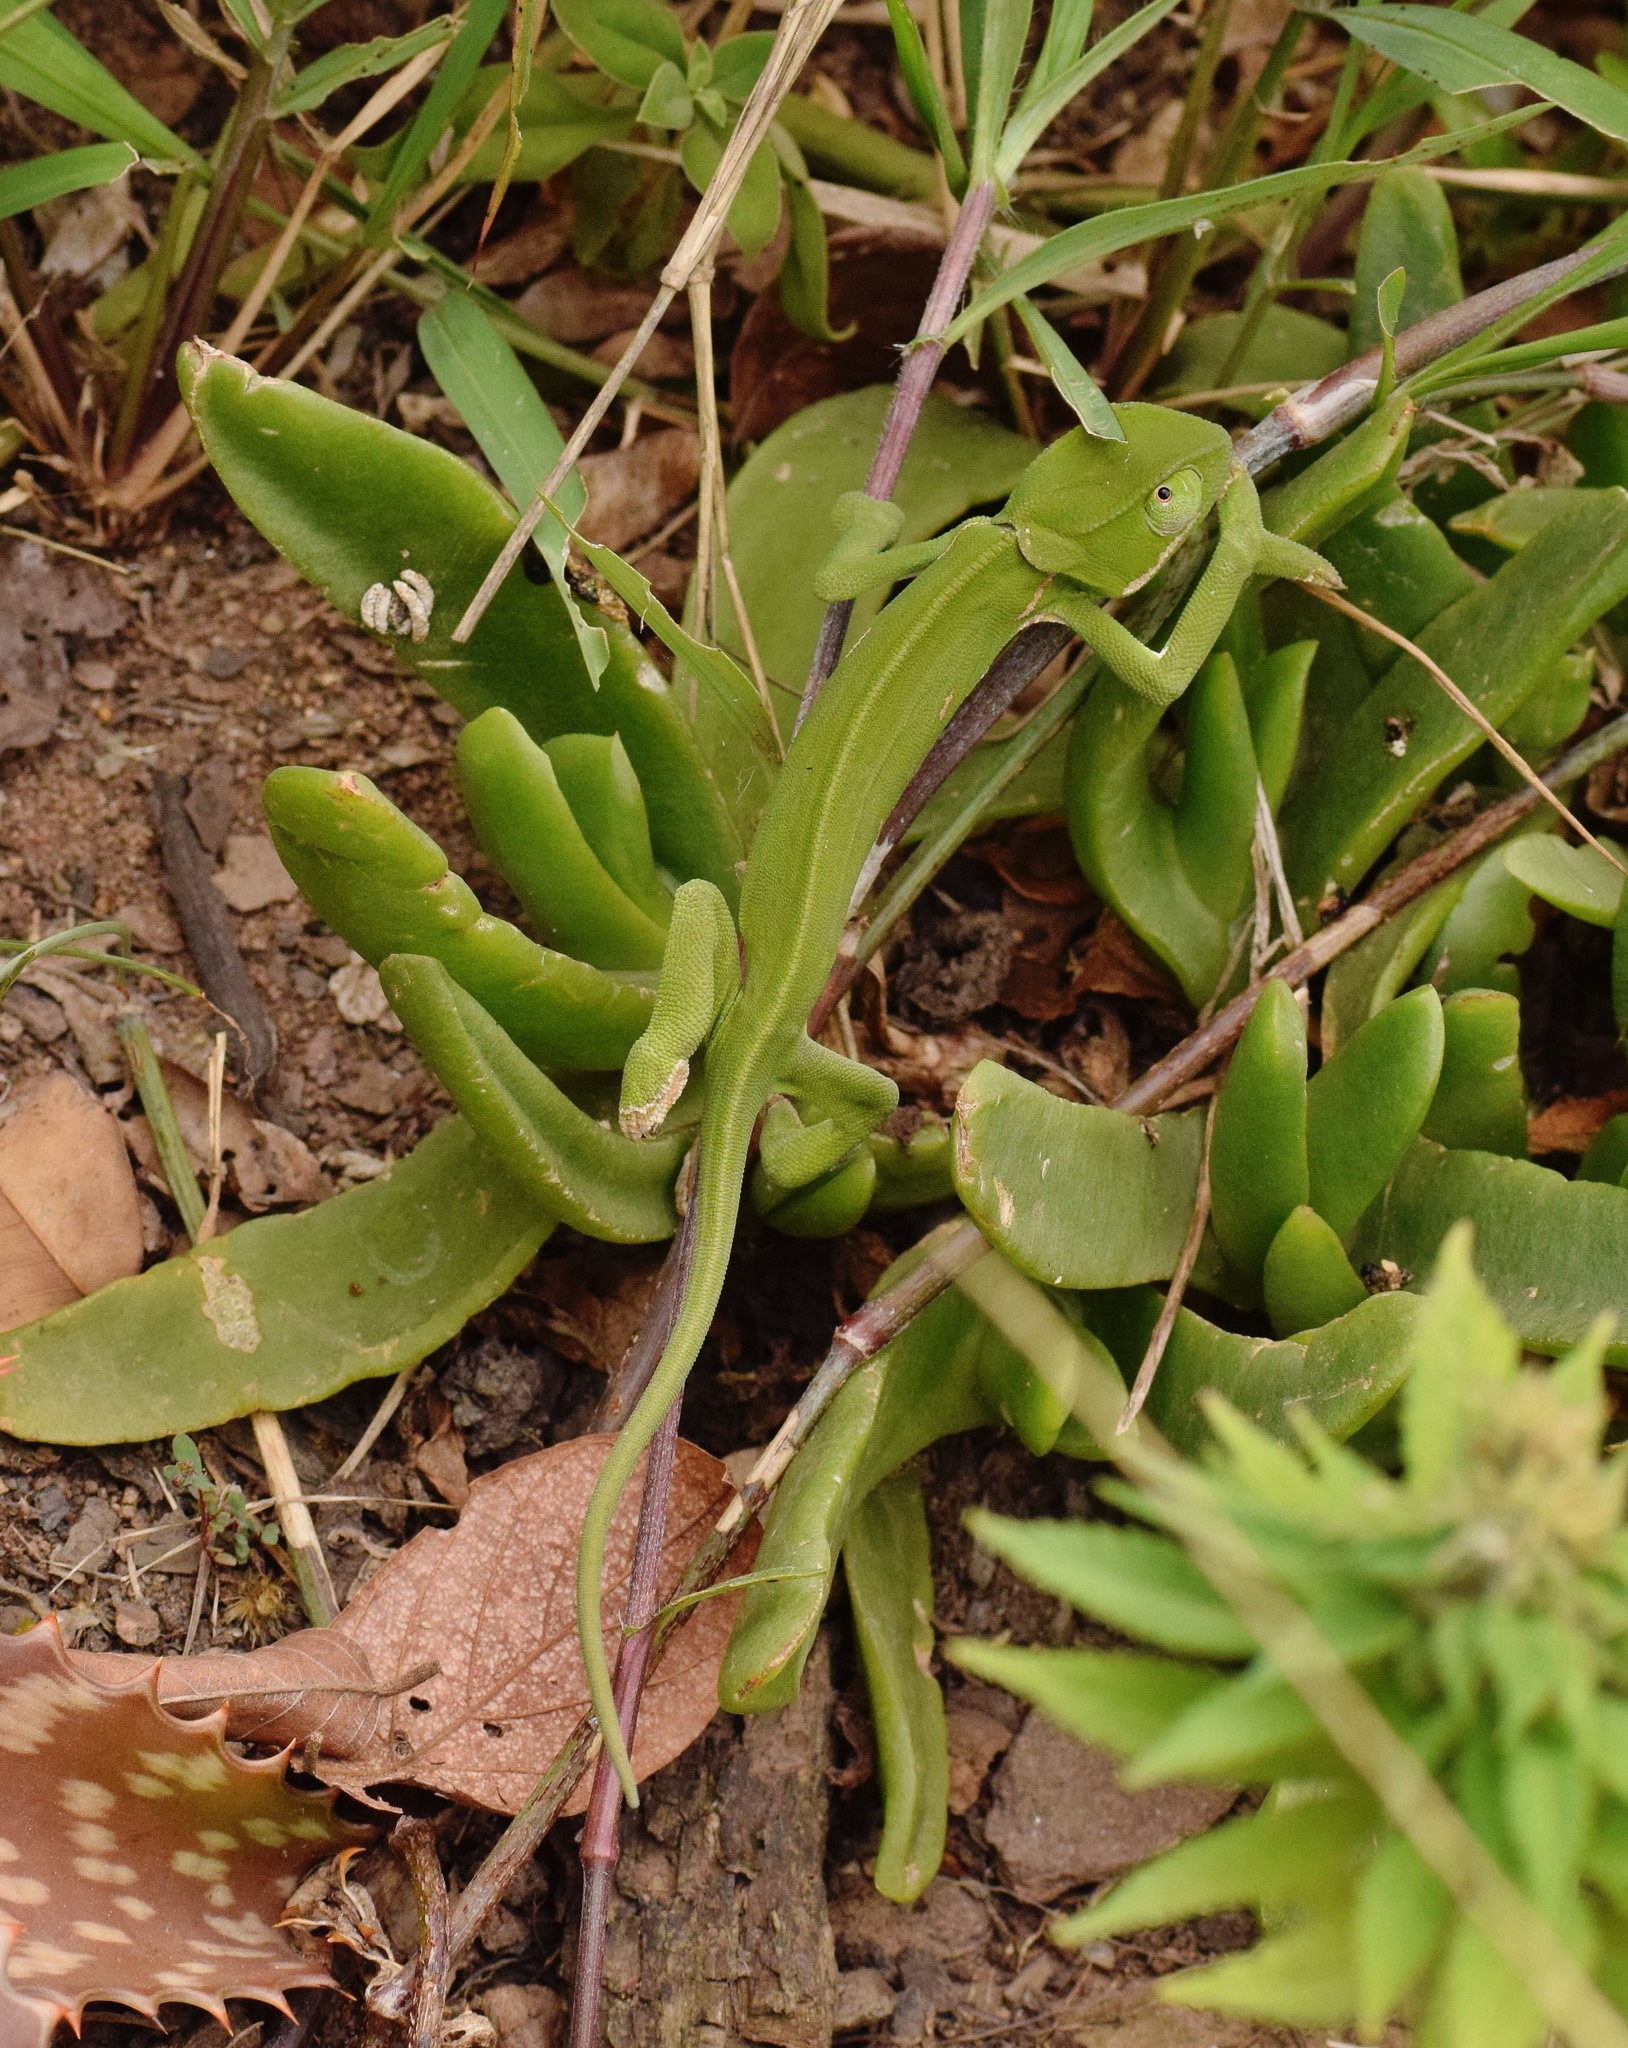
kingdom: Animalia
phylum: Chordata
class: Squamata
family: Chamaeleonidae
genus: Chamaeleo
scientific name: Chamaeleo dilepis
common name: Flapneck chameleon
